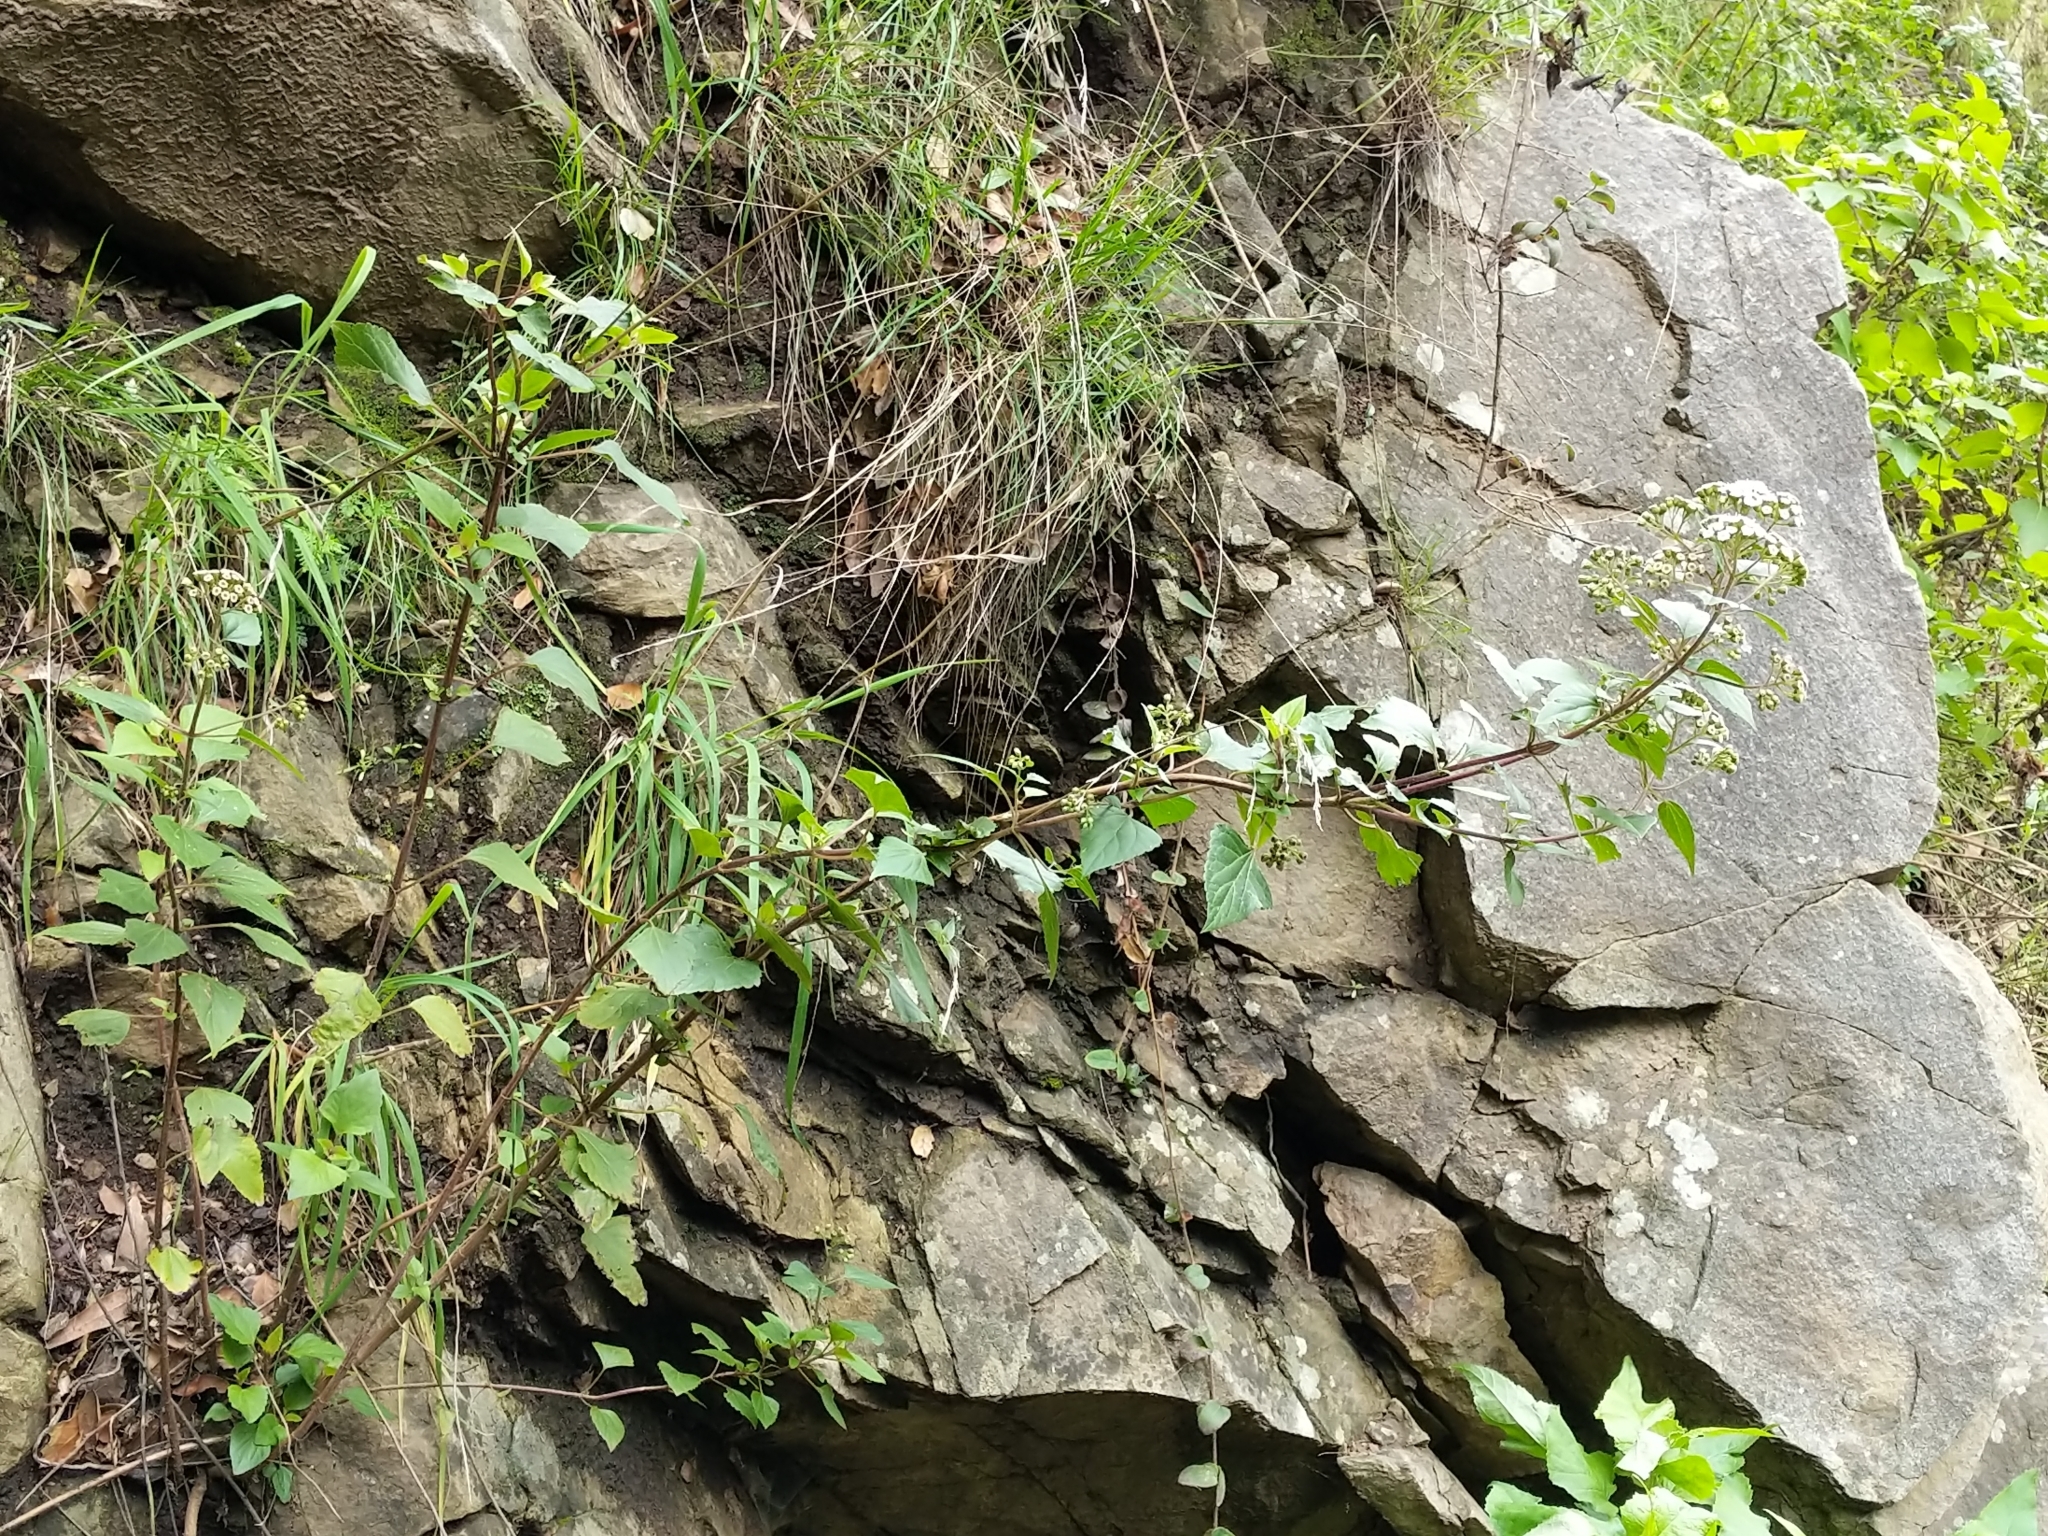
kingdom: Plantae
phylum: Tracheophyta
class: Magnoliopsida
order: Asterales
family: Asteraceae
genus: Ageratina
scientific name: Ageratina adenophora
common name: Sticky snakeroot
